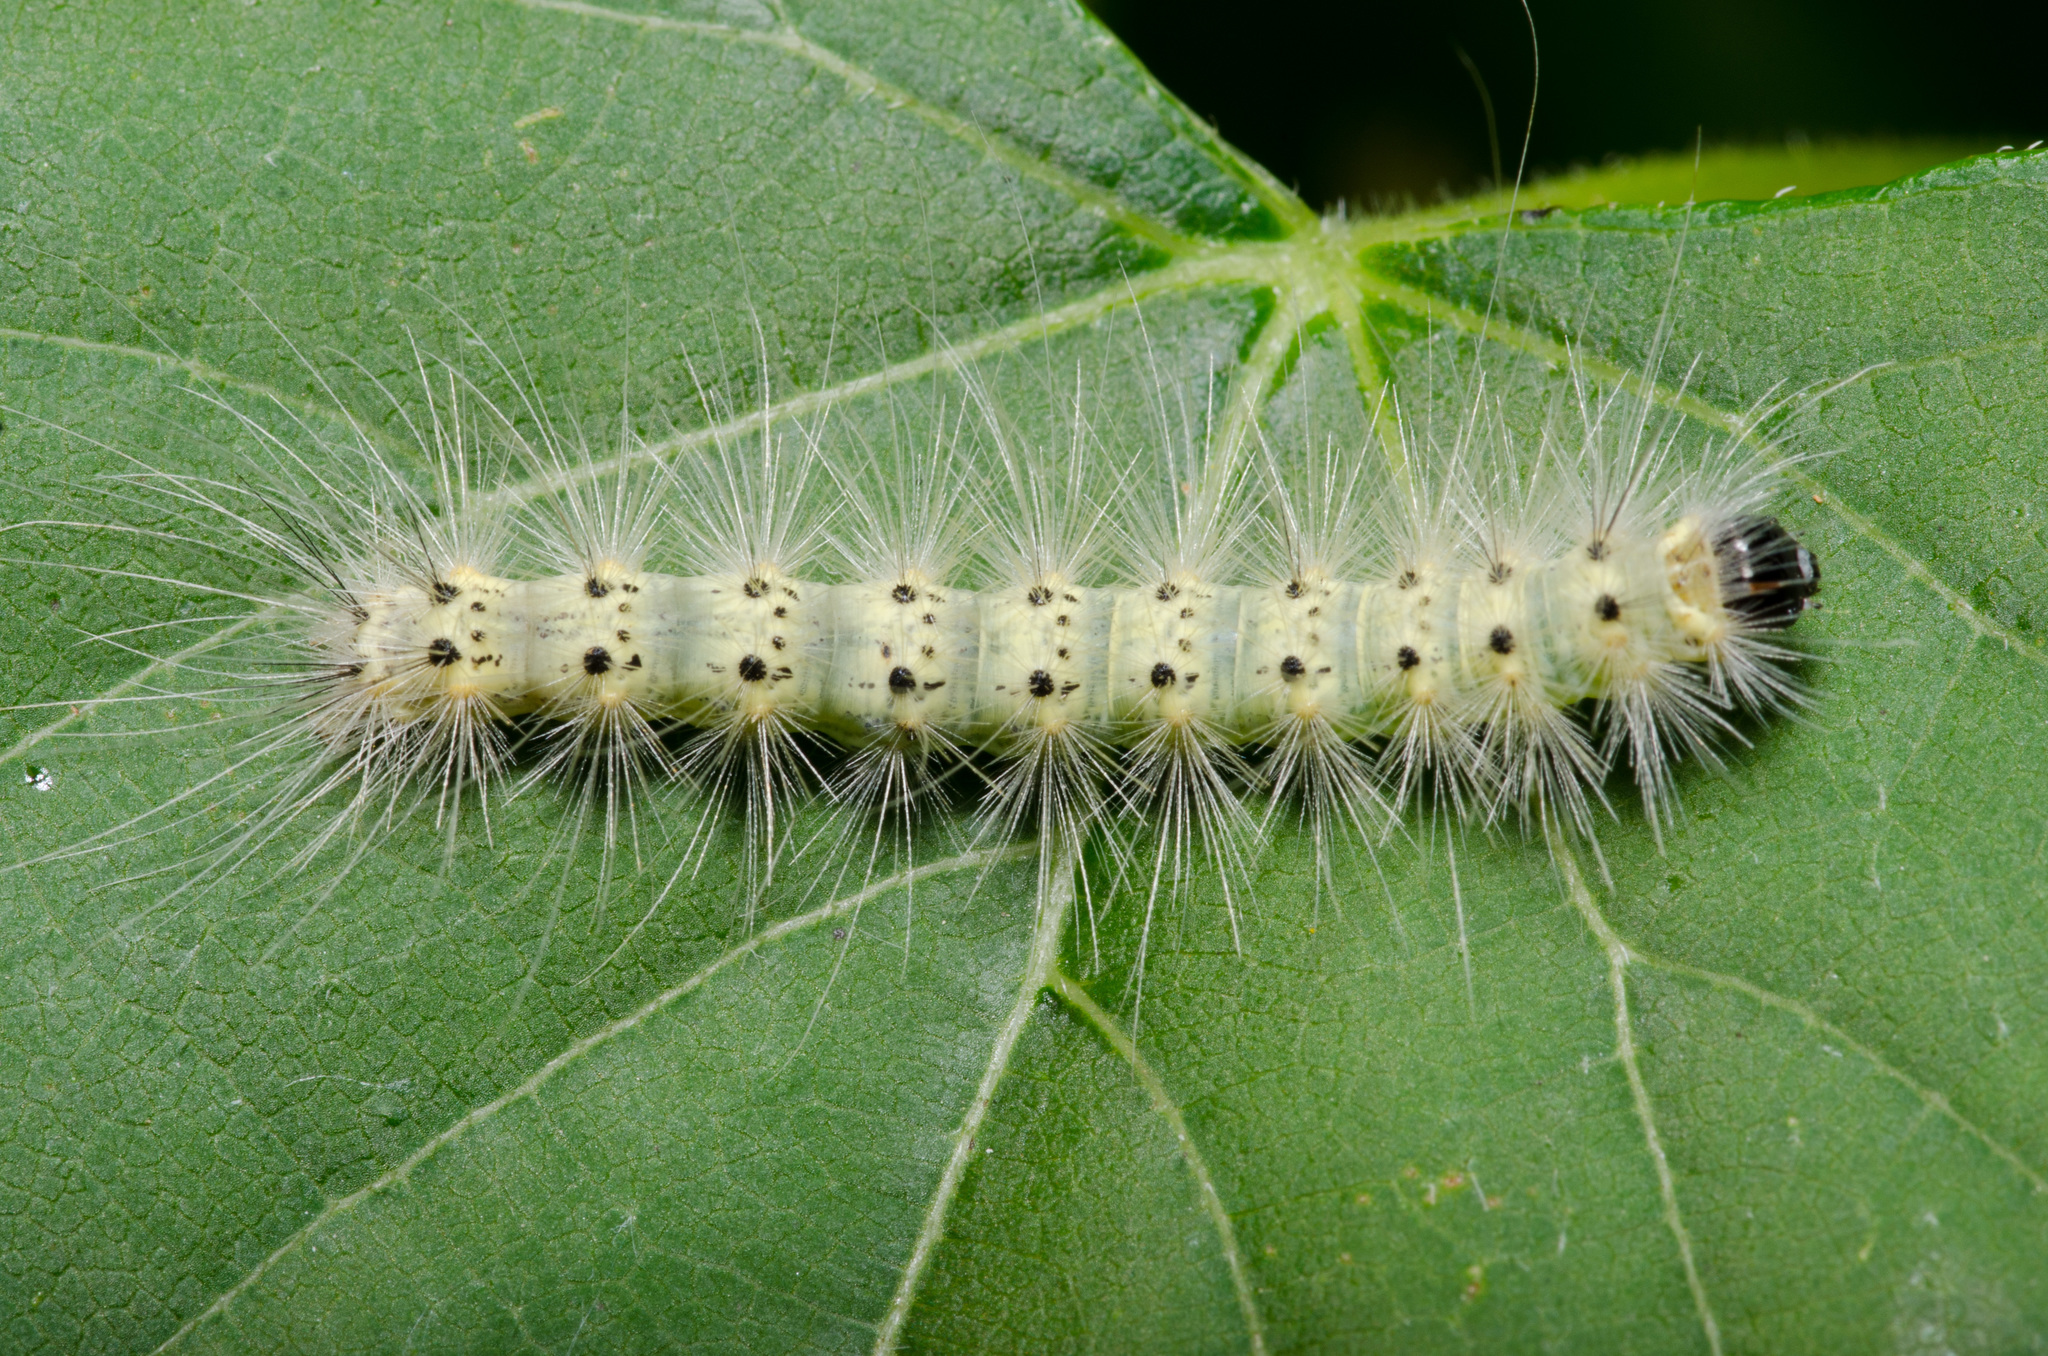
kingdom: Animalia
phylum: Arthropoda
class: Insecta
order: Lepidoptera
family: Erebidae
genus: Hyphantria
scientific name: Hyphantria cunea
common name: American white moth
